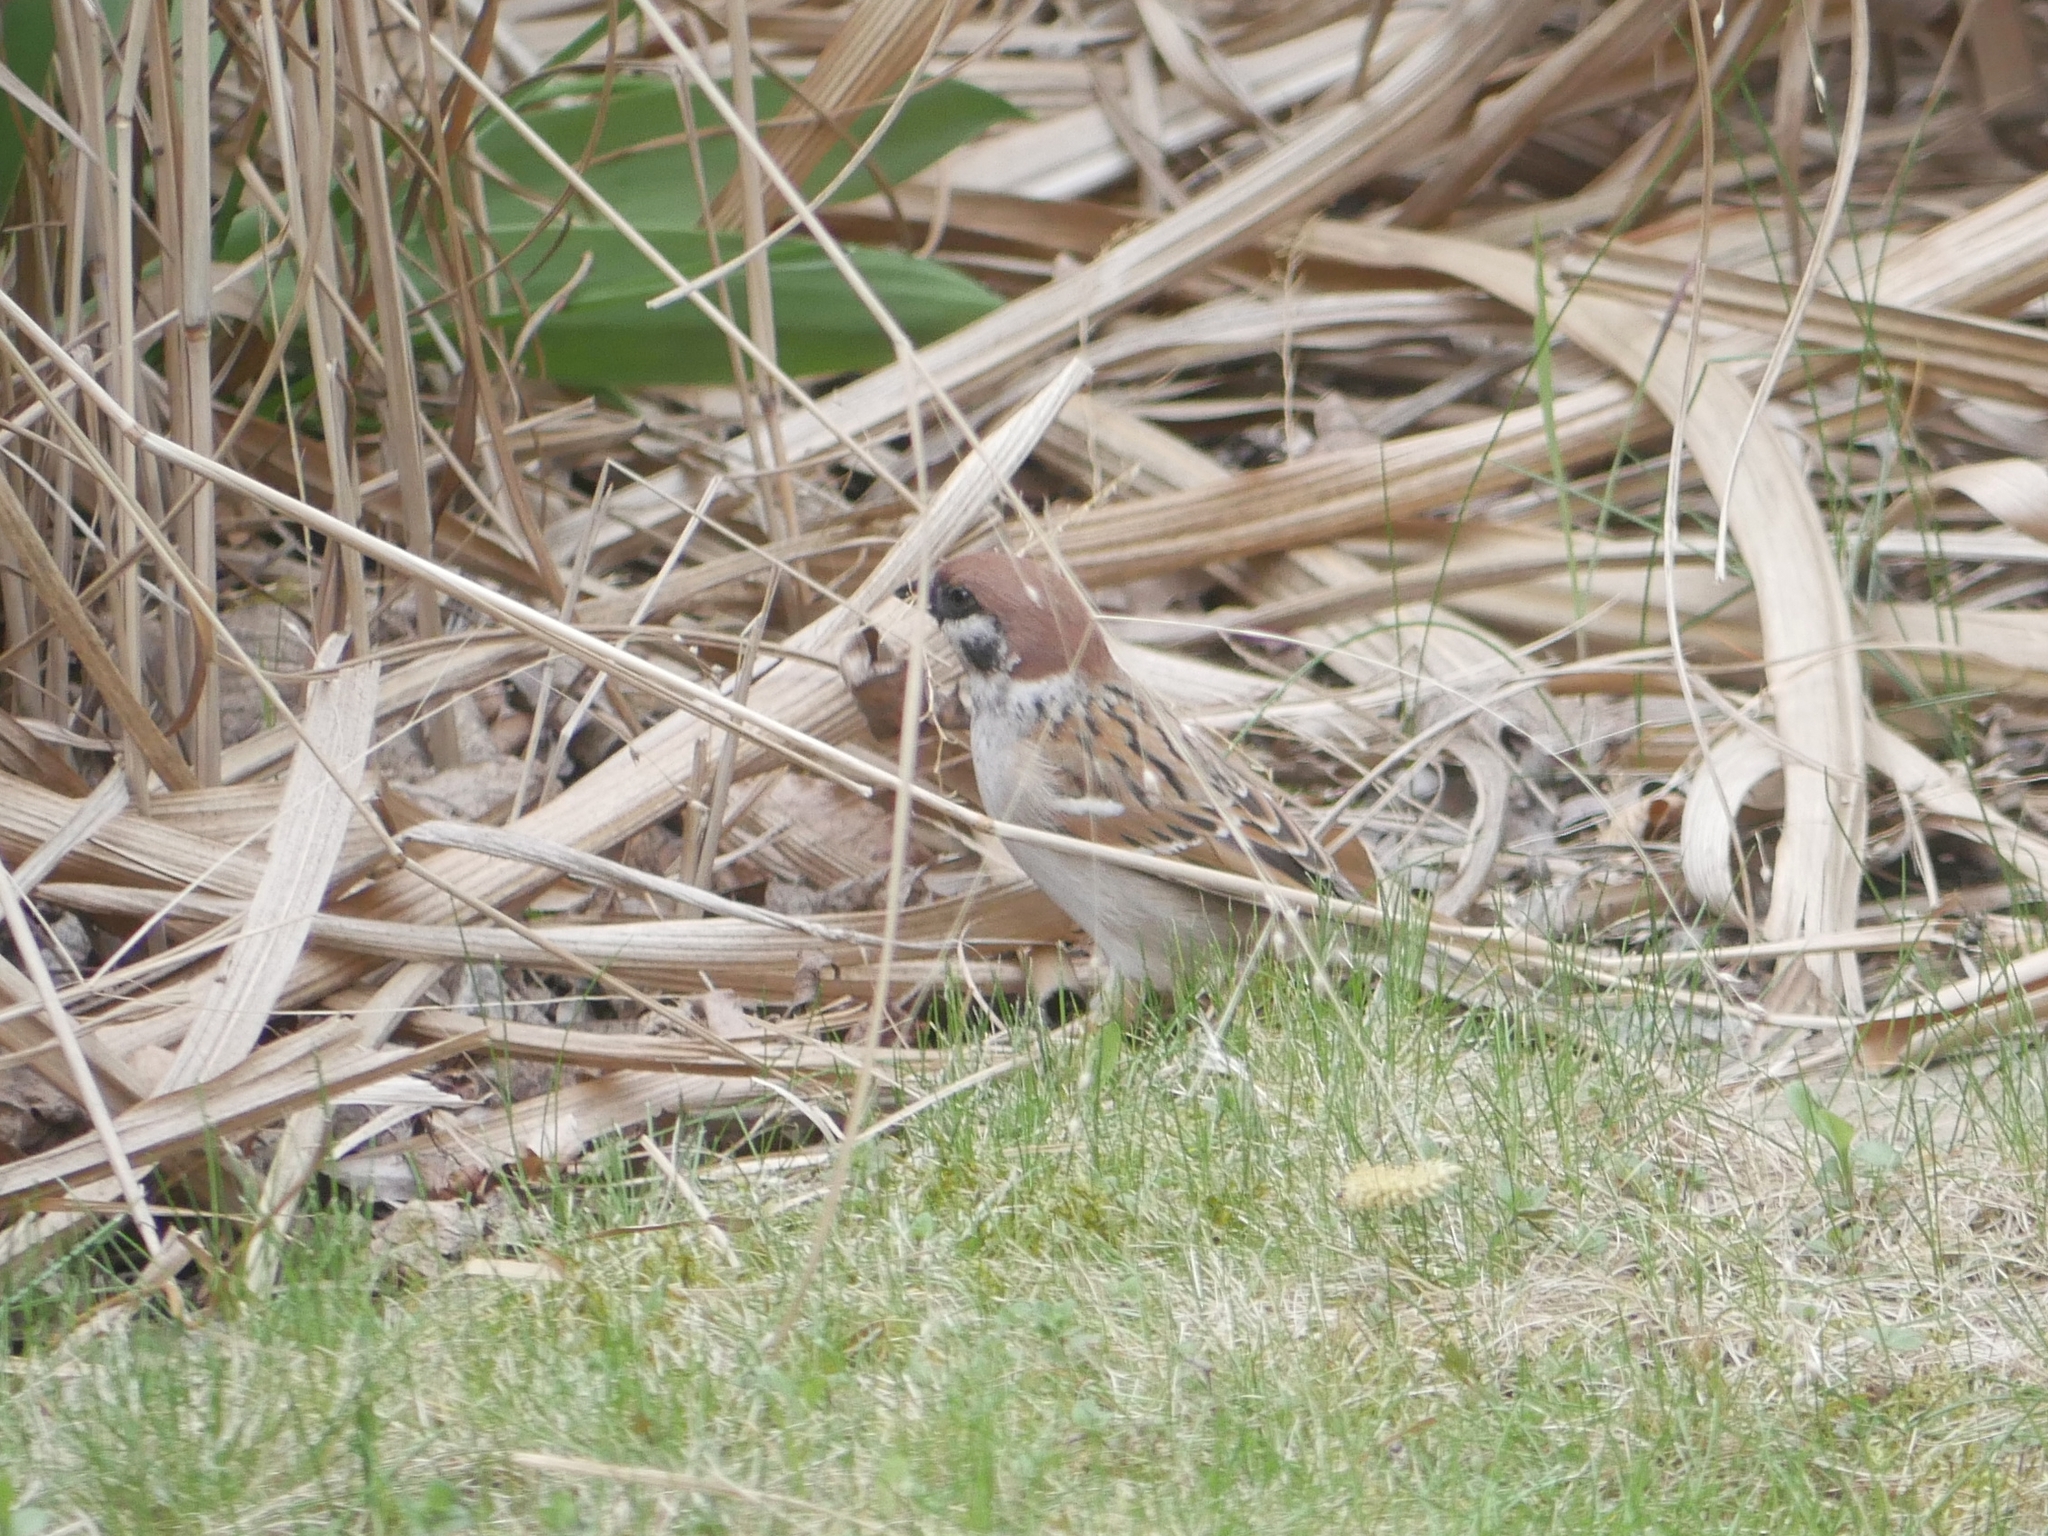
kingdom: Animalia
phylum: Chordata
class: Aves
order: Passeriformes
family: Passeridae
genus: Passer
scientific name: Passer montanus
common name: Eurasian tree sparrow
